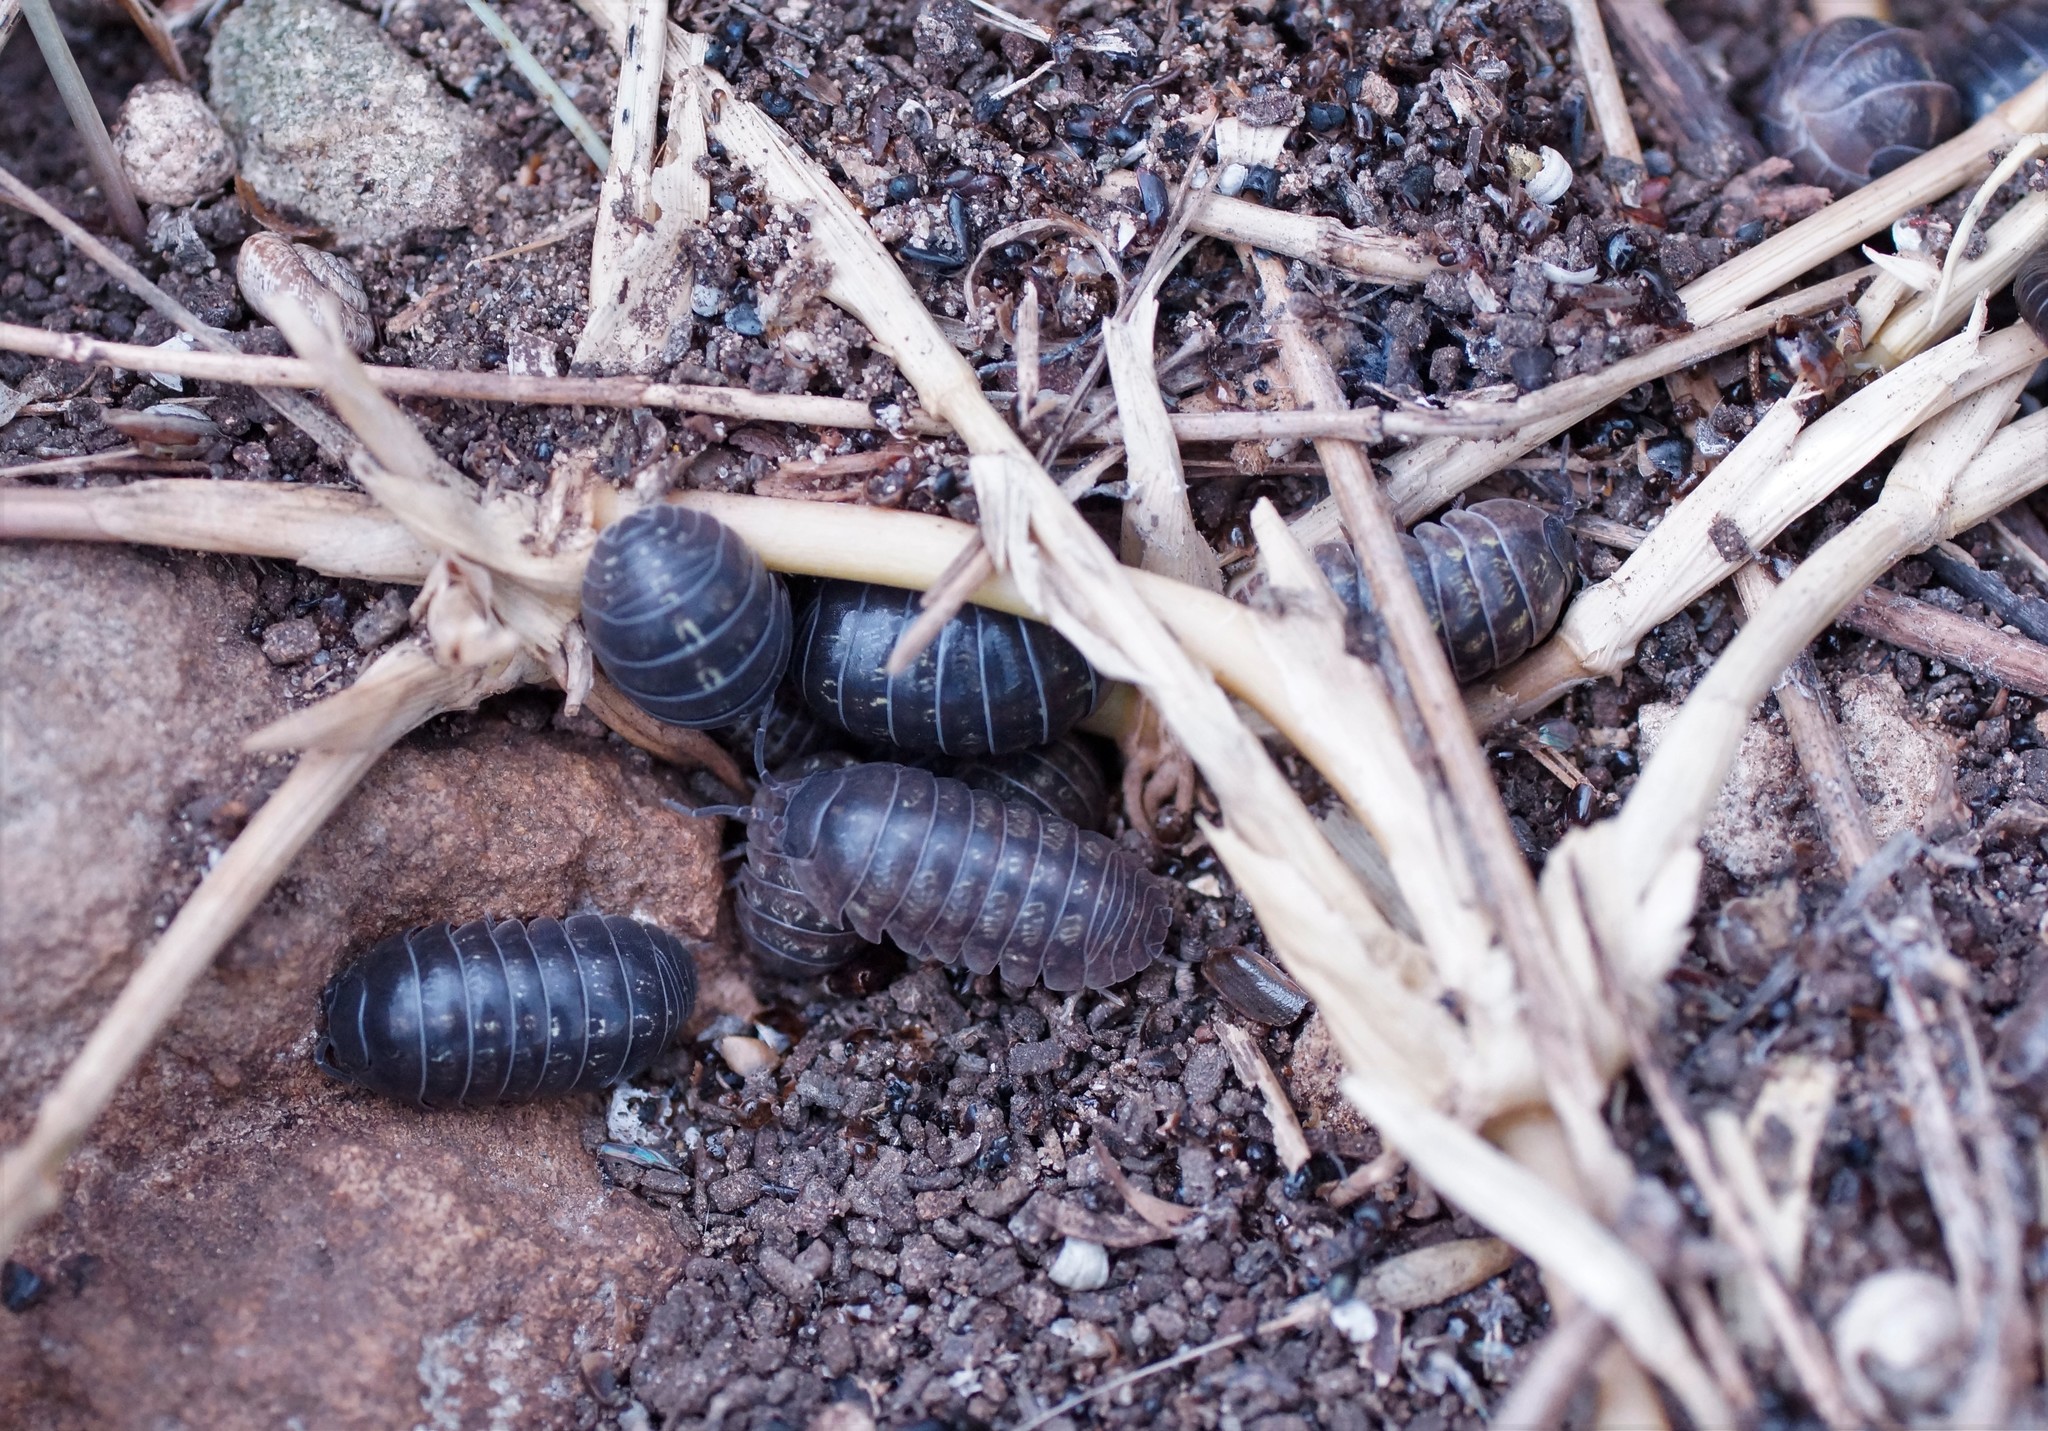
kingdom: Animalia
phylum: Arthropoda
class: Malacostraca
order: Isopoda
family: Armadillidiidae
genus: Armadillidium
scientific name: Armadillidium vulgare
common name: Common pill woodlouse
